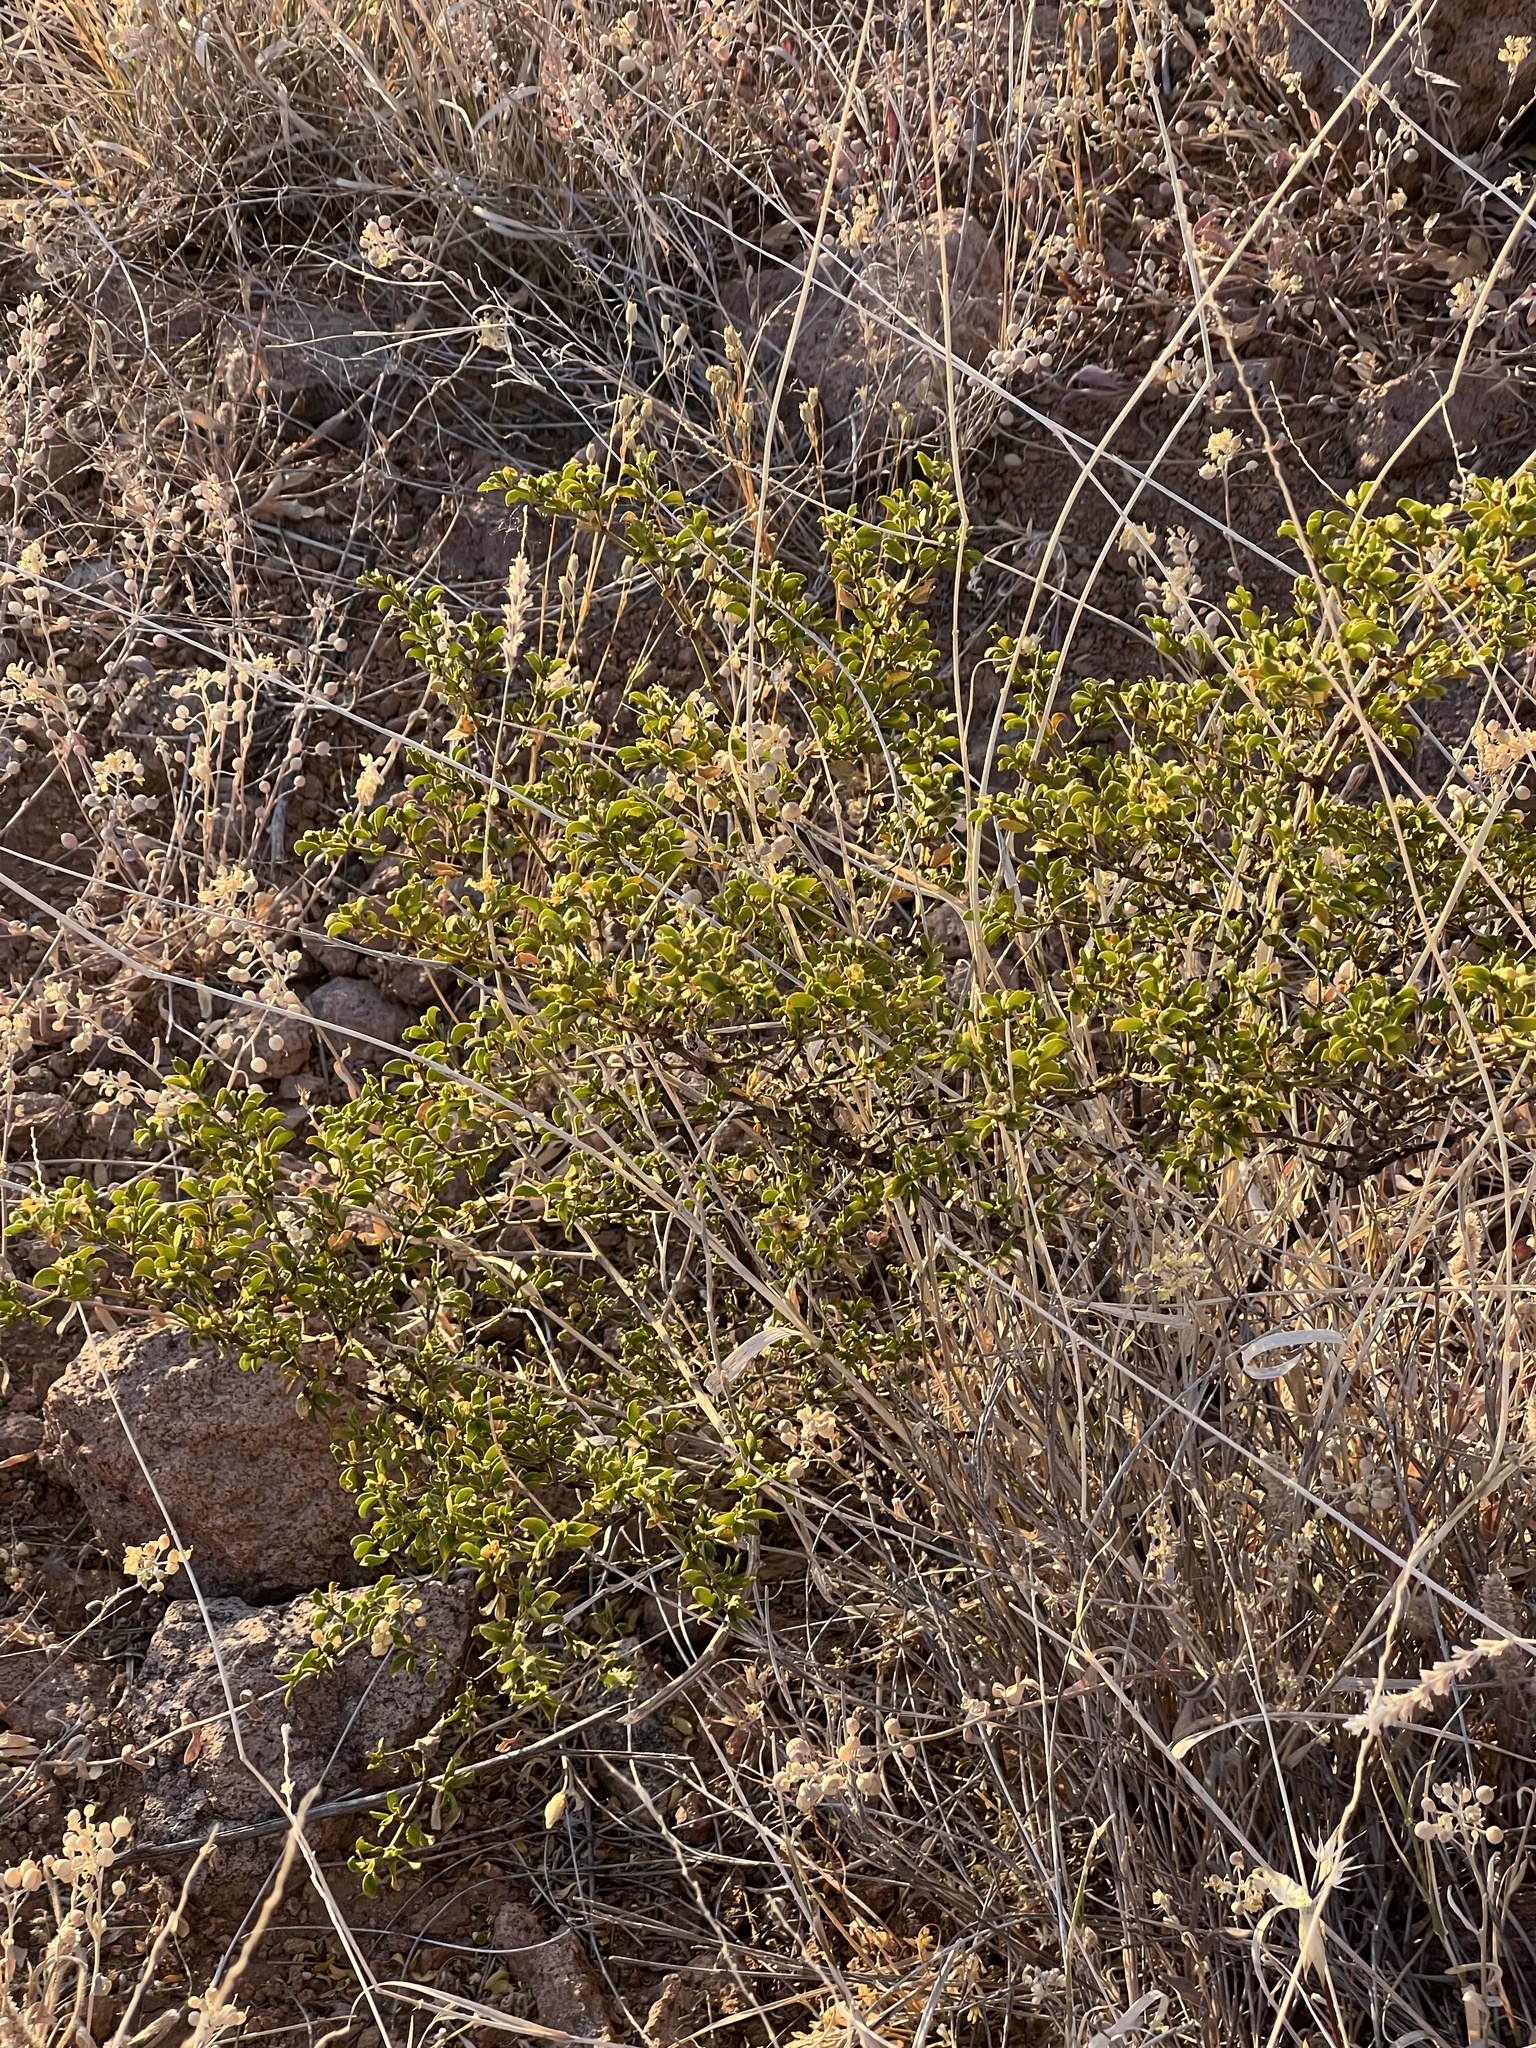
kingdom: Plantae
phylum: Tracheophyta
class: Magnoliopsida
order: Zygophyllales
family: Zygophyllaceae
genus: Larrea
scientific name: Larrea tridentata
